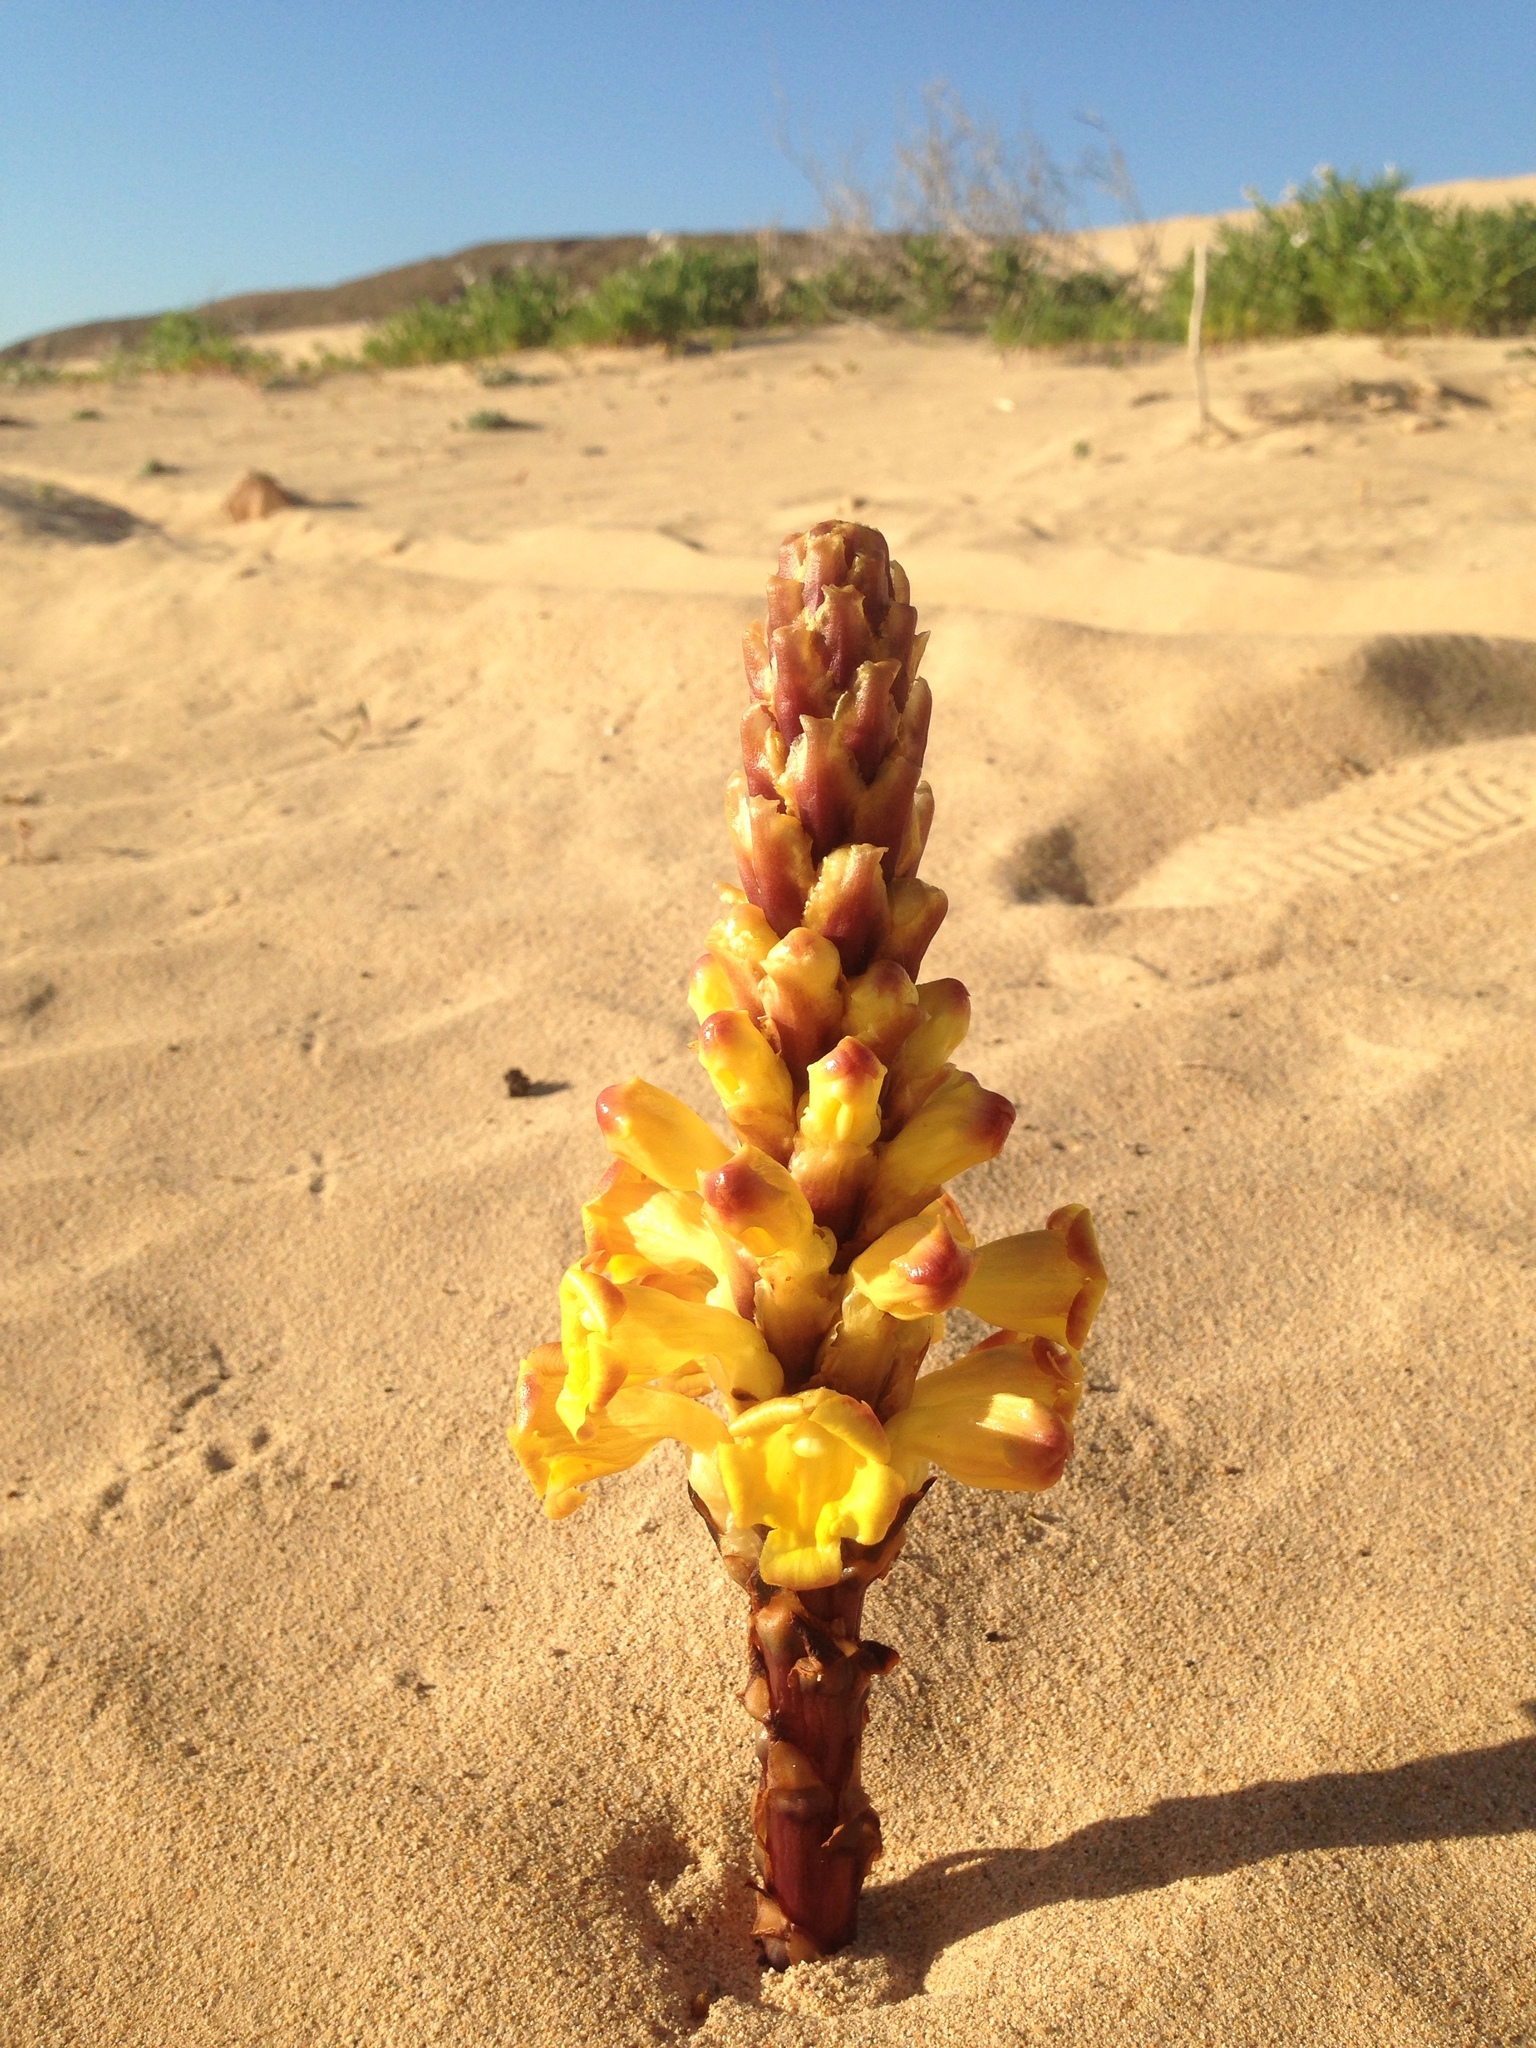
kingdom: Plantae
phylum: Tracheophyta
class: Magnoliopsida
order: Lamiales
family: Orobanchaceae
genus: Cistanche
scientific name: Cistanche phelypaea
